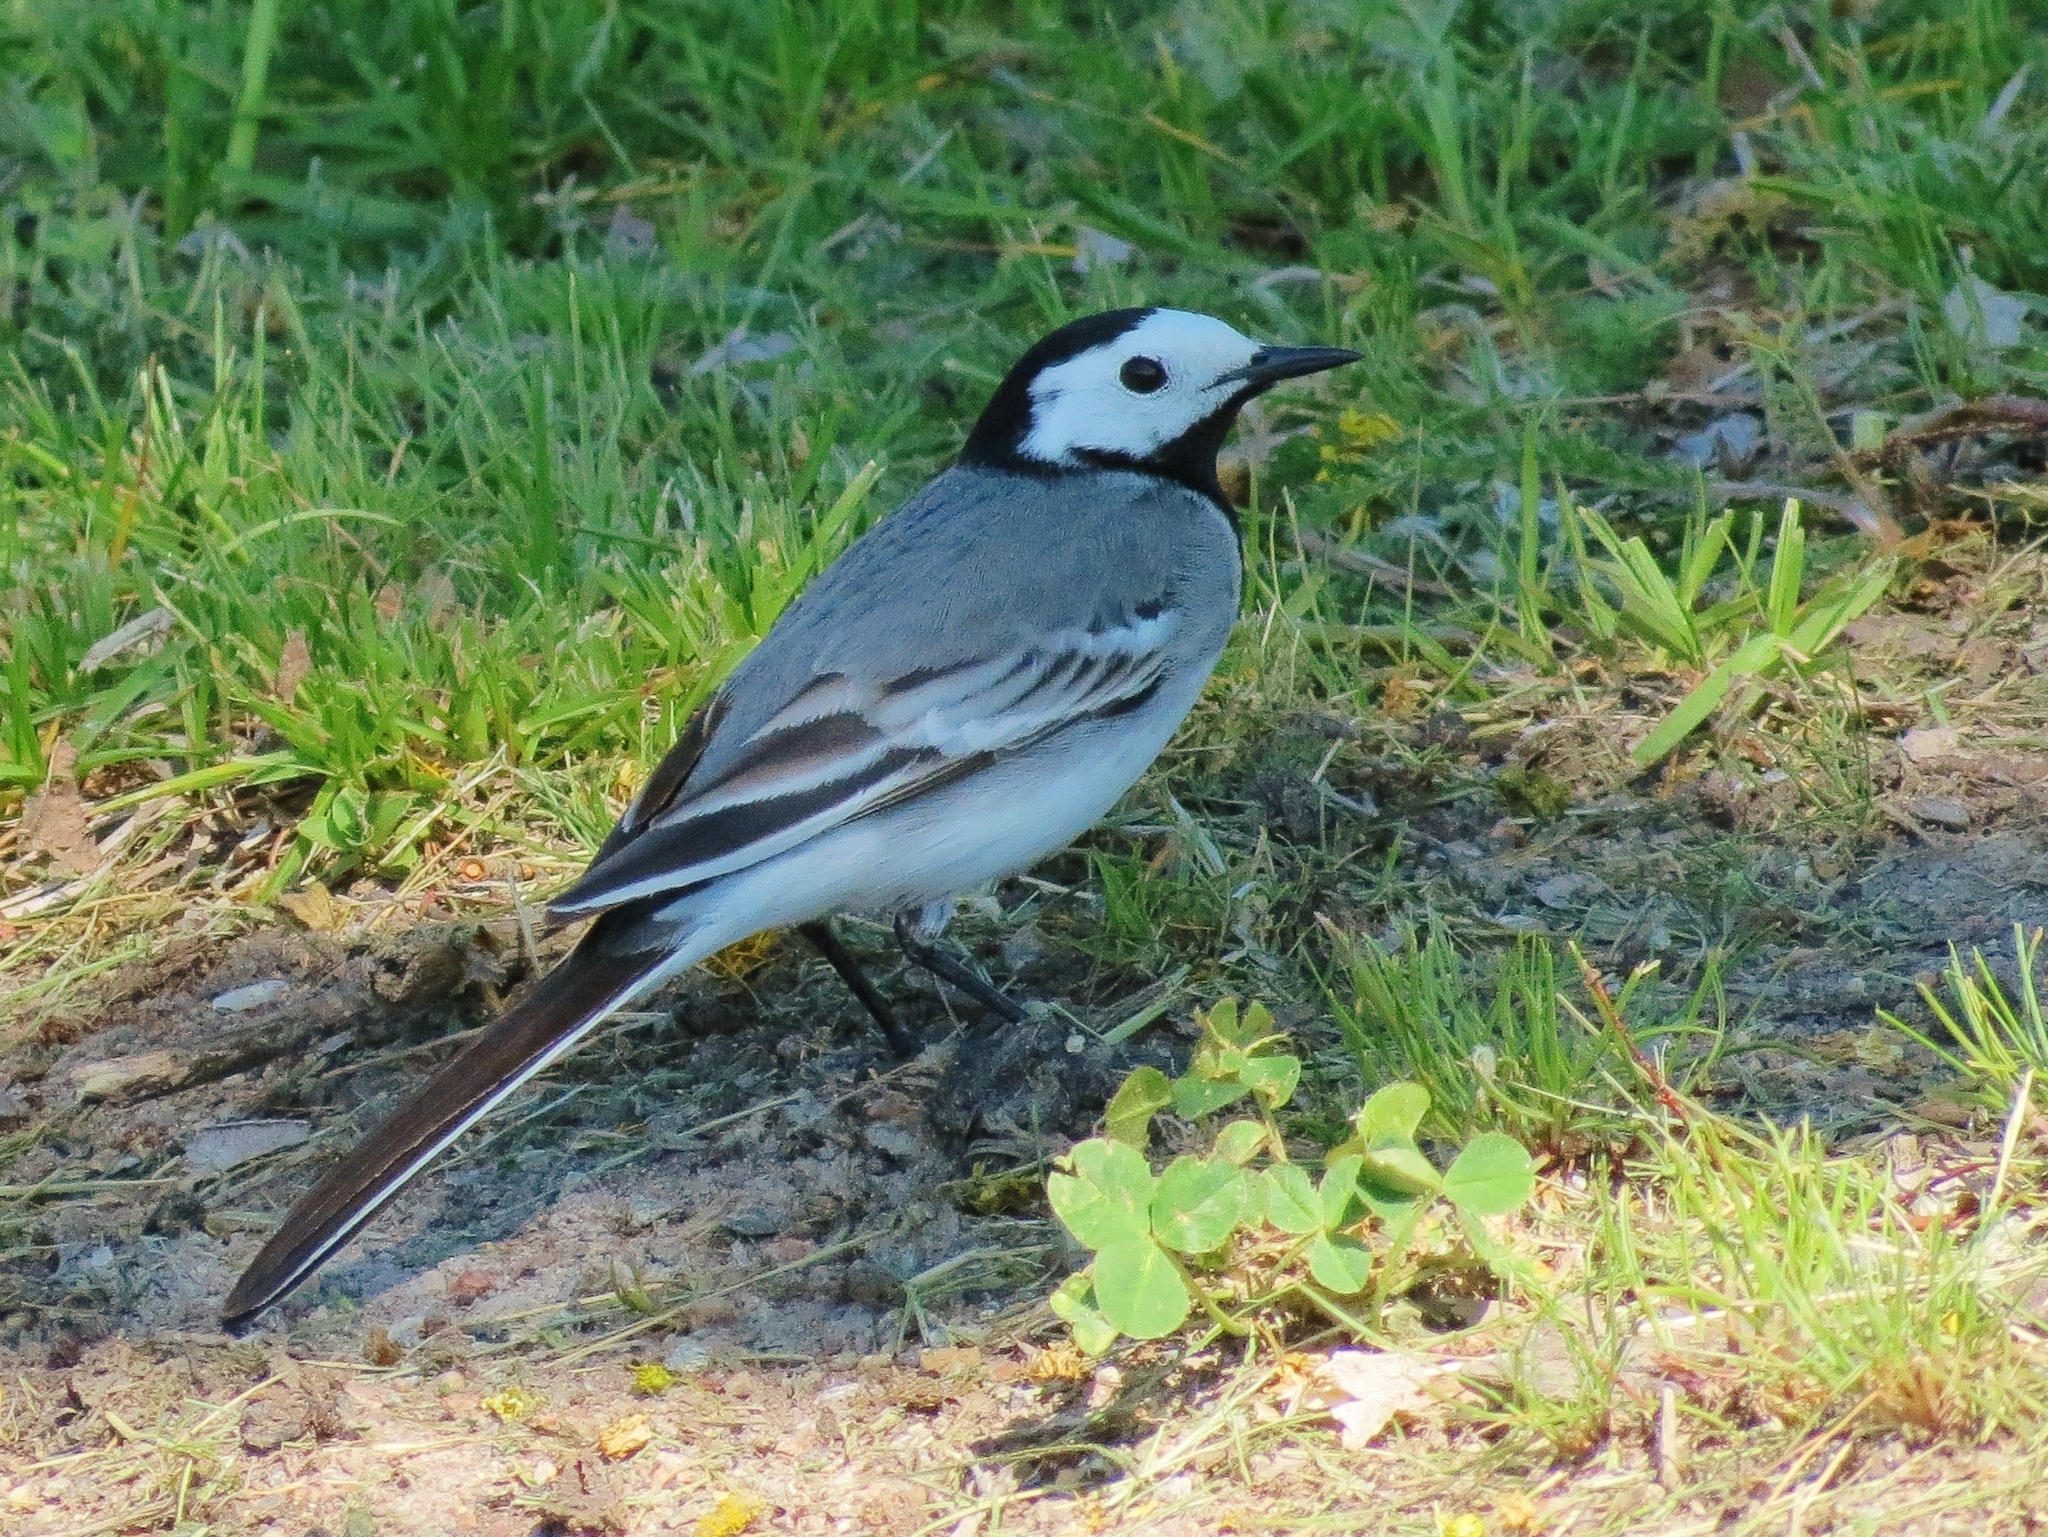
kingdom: Animalia
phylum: Chordata
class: Aves
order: Passeriformes
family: Motacillidae
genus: Motacilla
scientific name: Motacilla alba
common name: White wagtail
